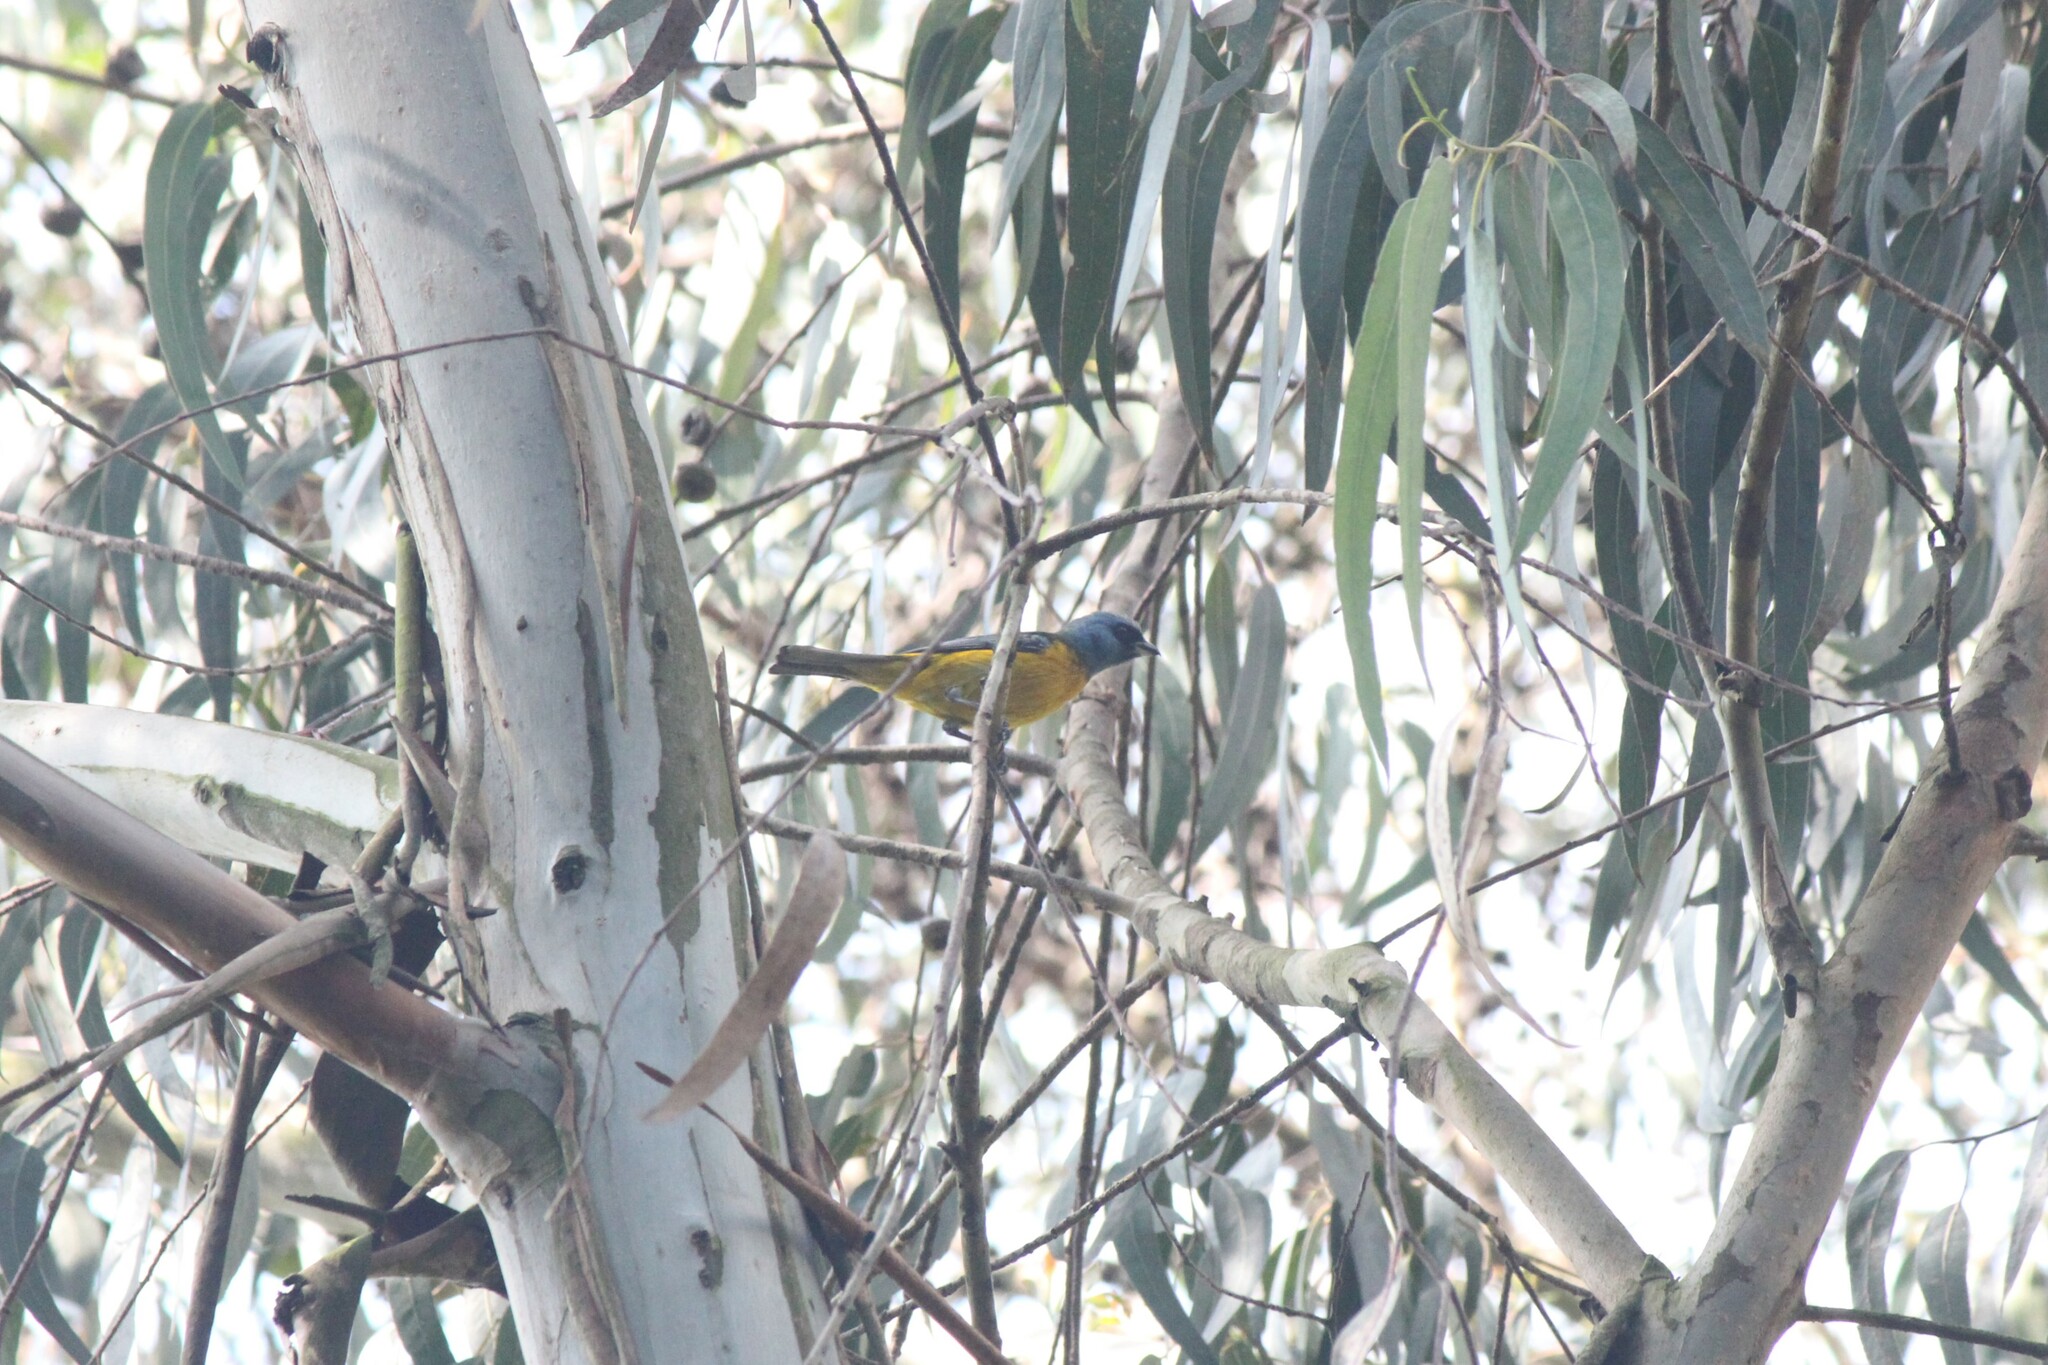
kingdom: Animalia
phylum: Chordata
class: Aves
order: Passeriformes
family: Thraupidae
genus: Rauenia
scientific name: Rauenia bonariensis
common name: Blue-and-yellow tanager
